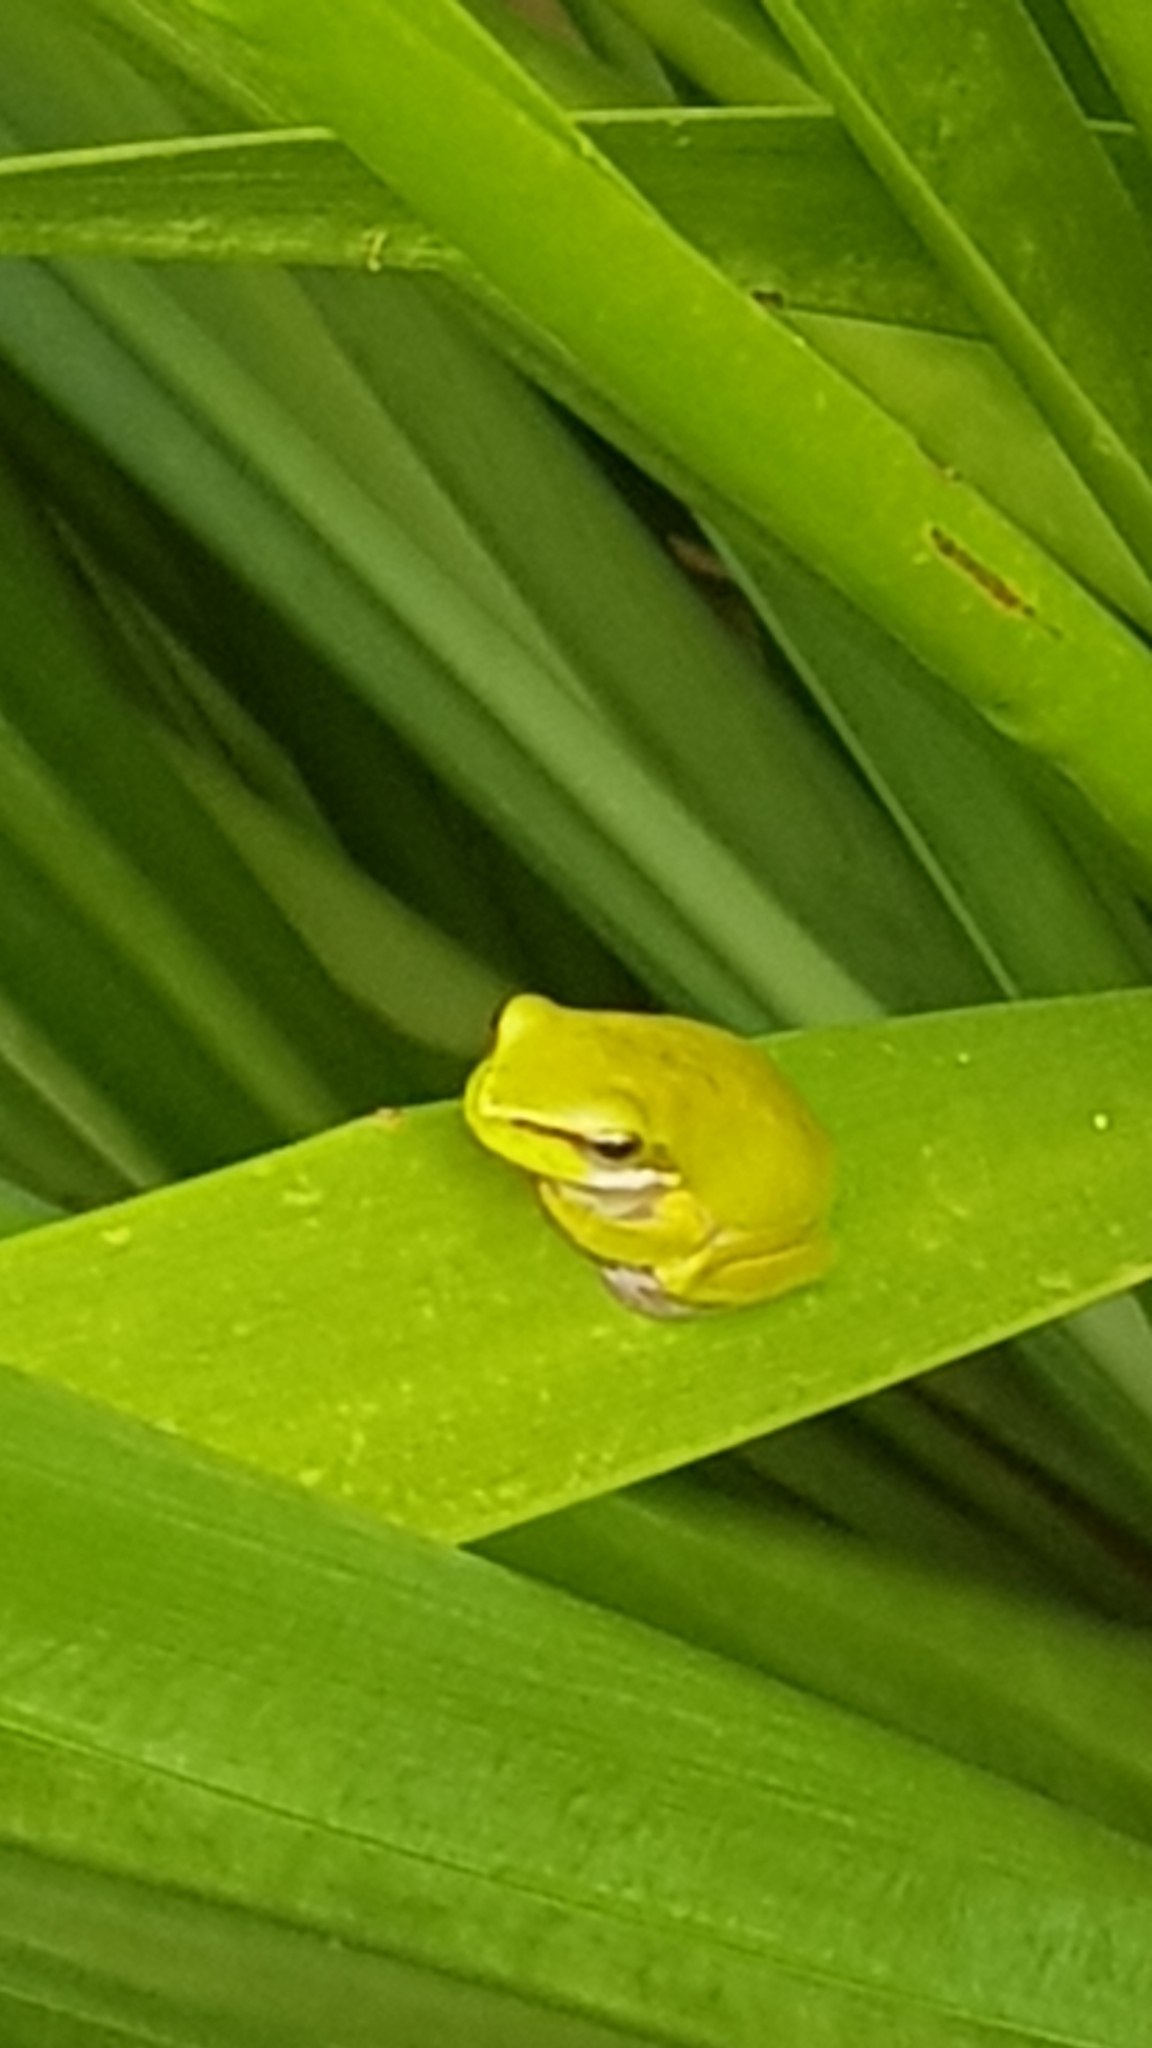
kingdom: Animalia
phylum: Chordata
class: Amphibia
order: Anura
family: Pelodryadidae
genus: Litoria
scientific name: Litoria fallax
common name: Eastern dwarf treefrog
